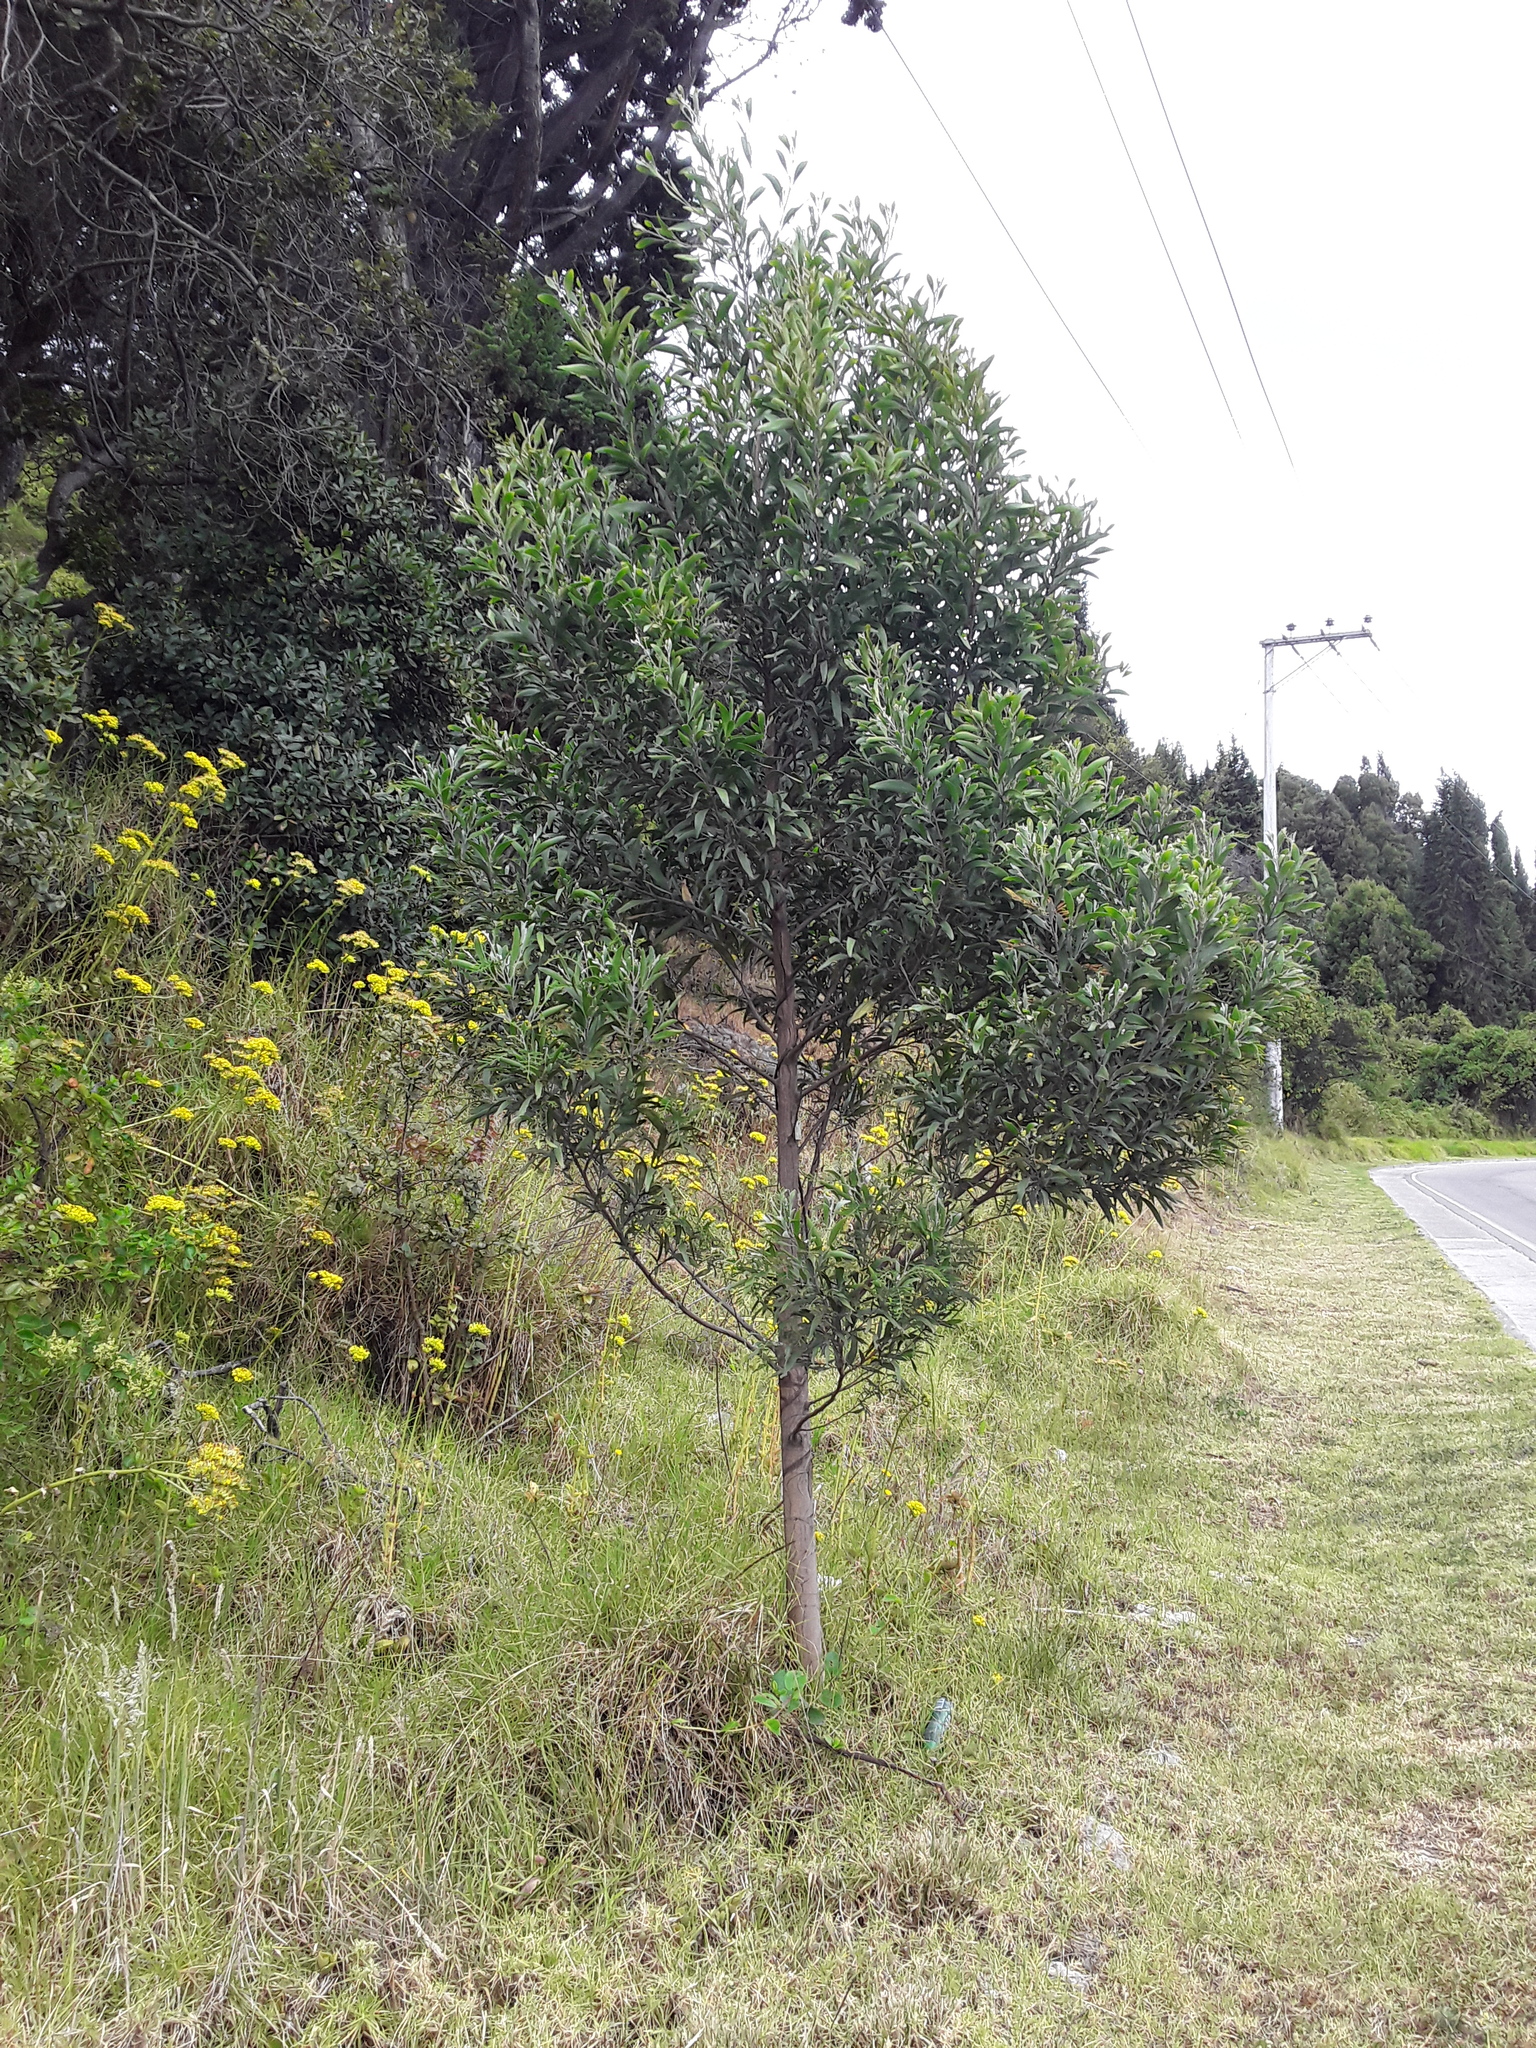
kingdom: Plantae
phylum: Tracheophyta
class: Magnoliopsida
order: Fabales
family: Fabaceae
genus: Acacia
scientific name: Acacia melanoxylon
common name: Blackwood
